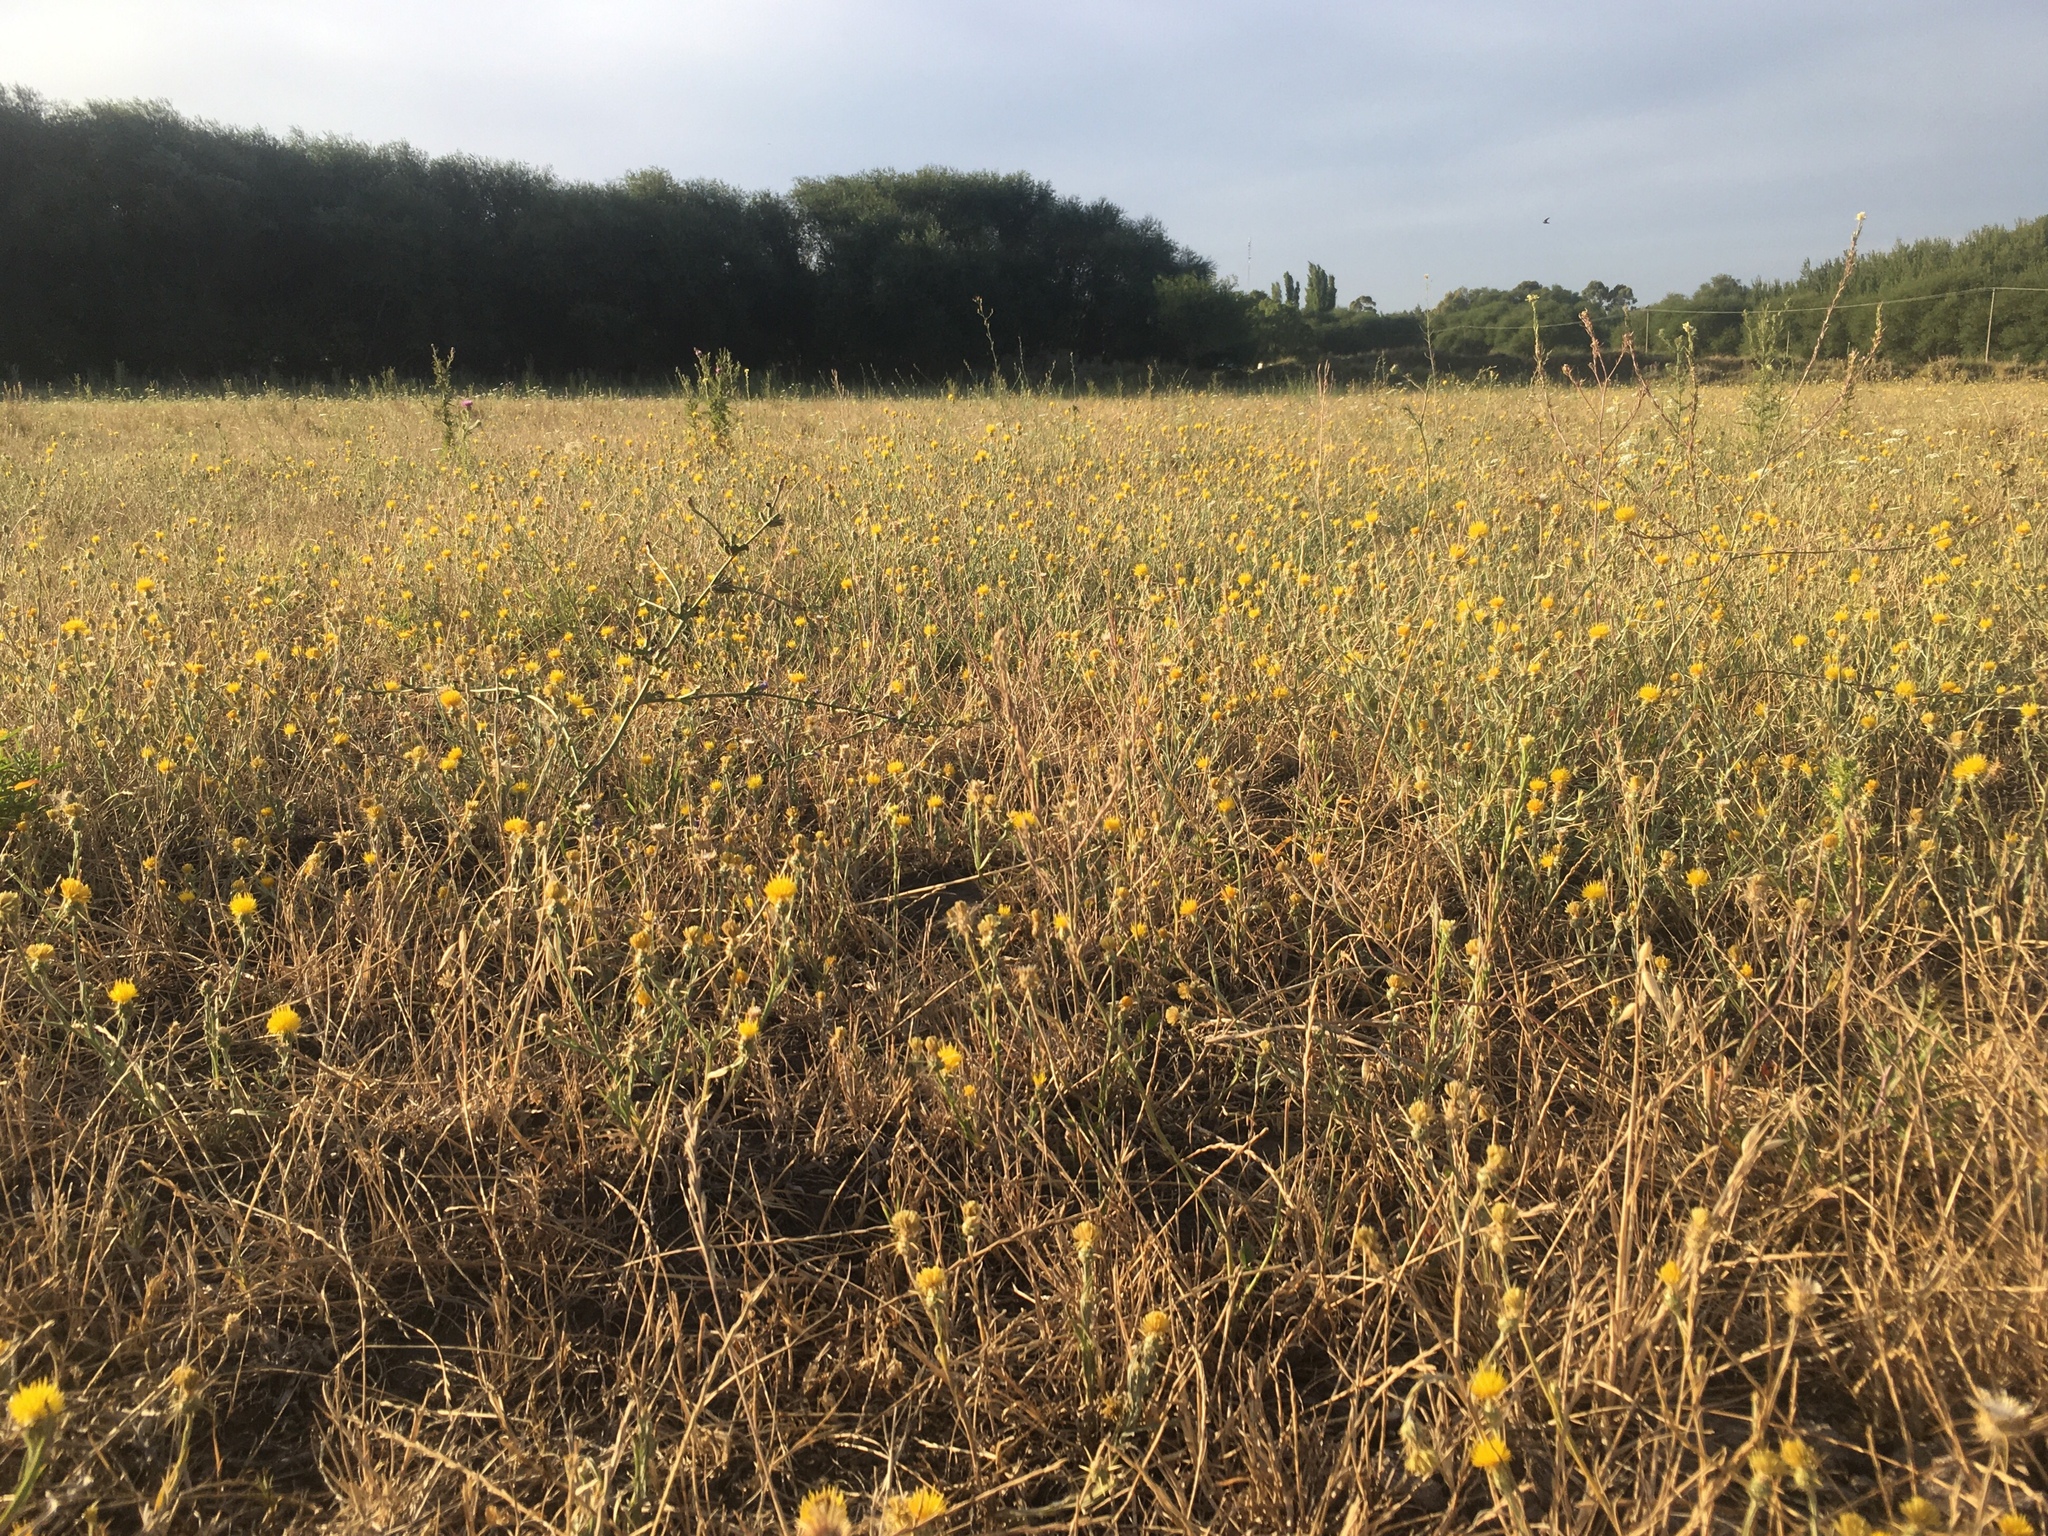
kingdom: Plantae
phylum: Tracheophyta
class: Magnoliopsida
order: Asterales
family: Asteraceae
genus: Centaurea
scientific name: Centaurea solstitialis
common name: Yellow star-thistle
